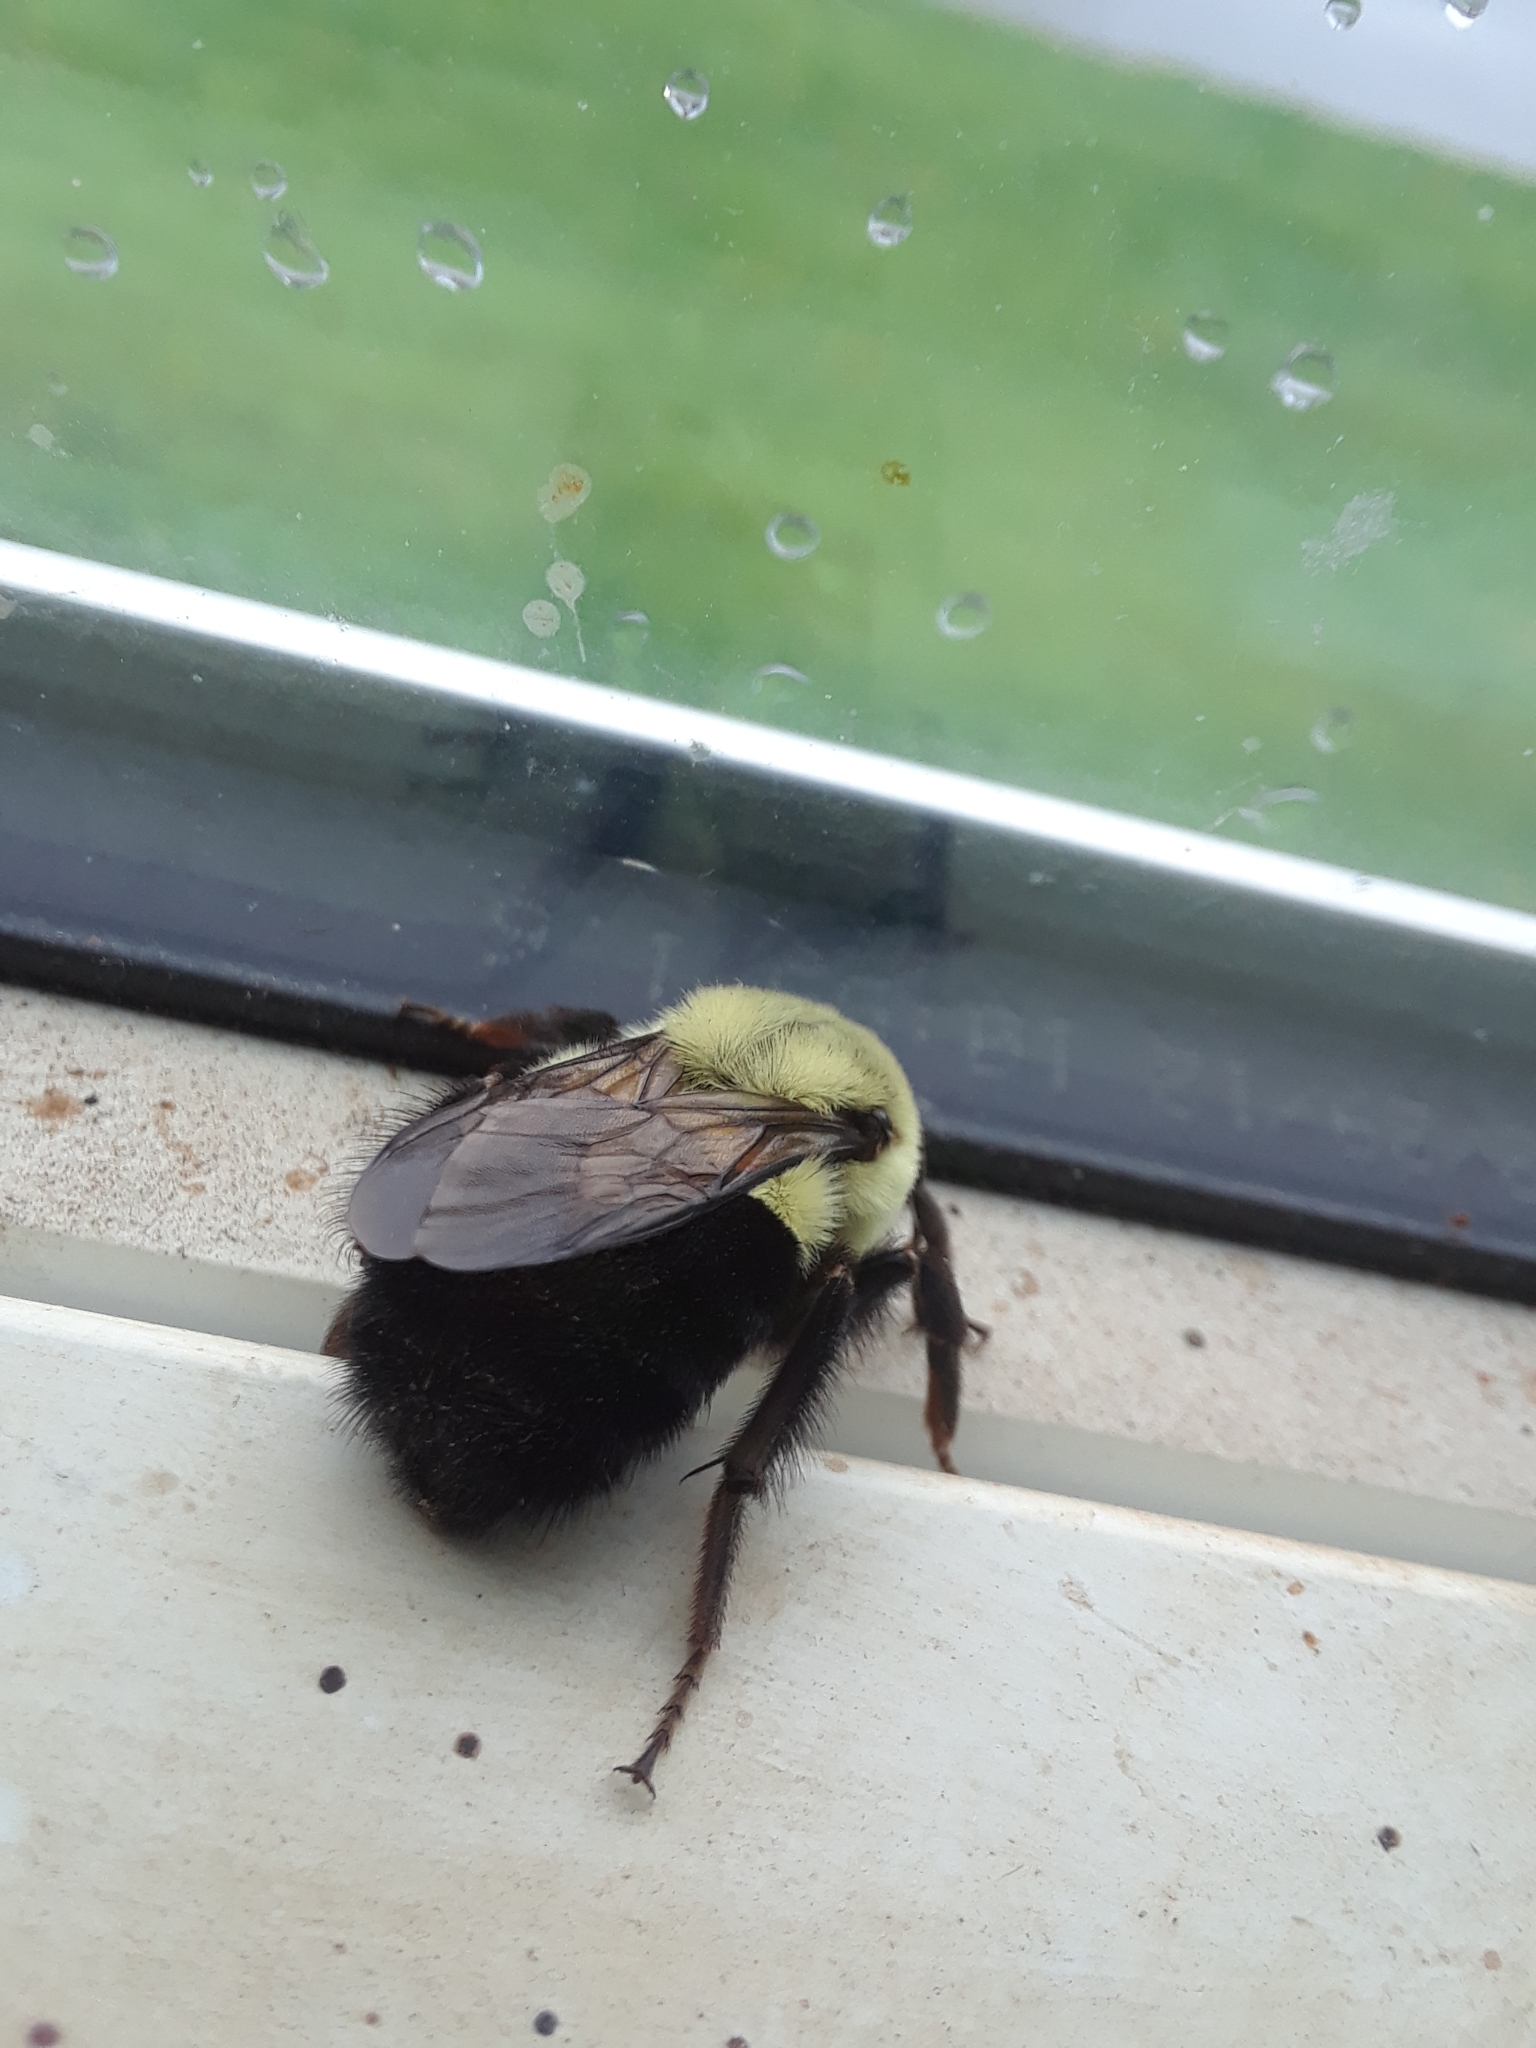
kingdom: Animalia
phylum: Arthropoda
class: Insecta
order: Hymenoptera
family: Apidae
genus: Bombus
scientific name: Bombus impatiens
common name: Common eastern bumble bee
